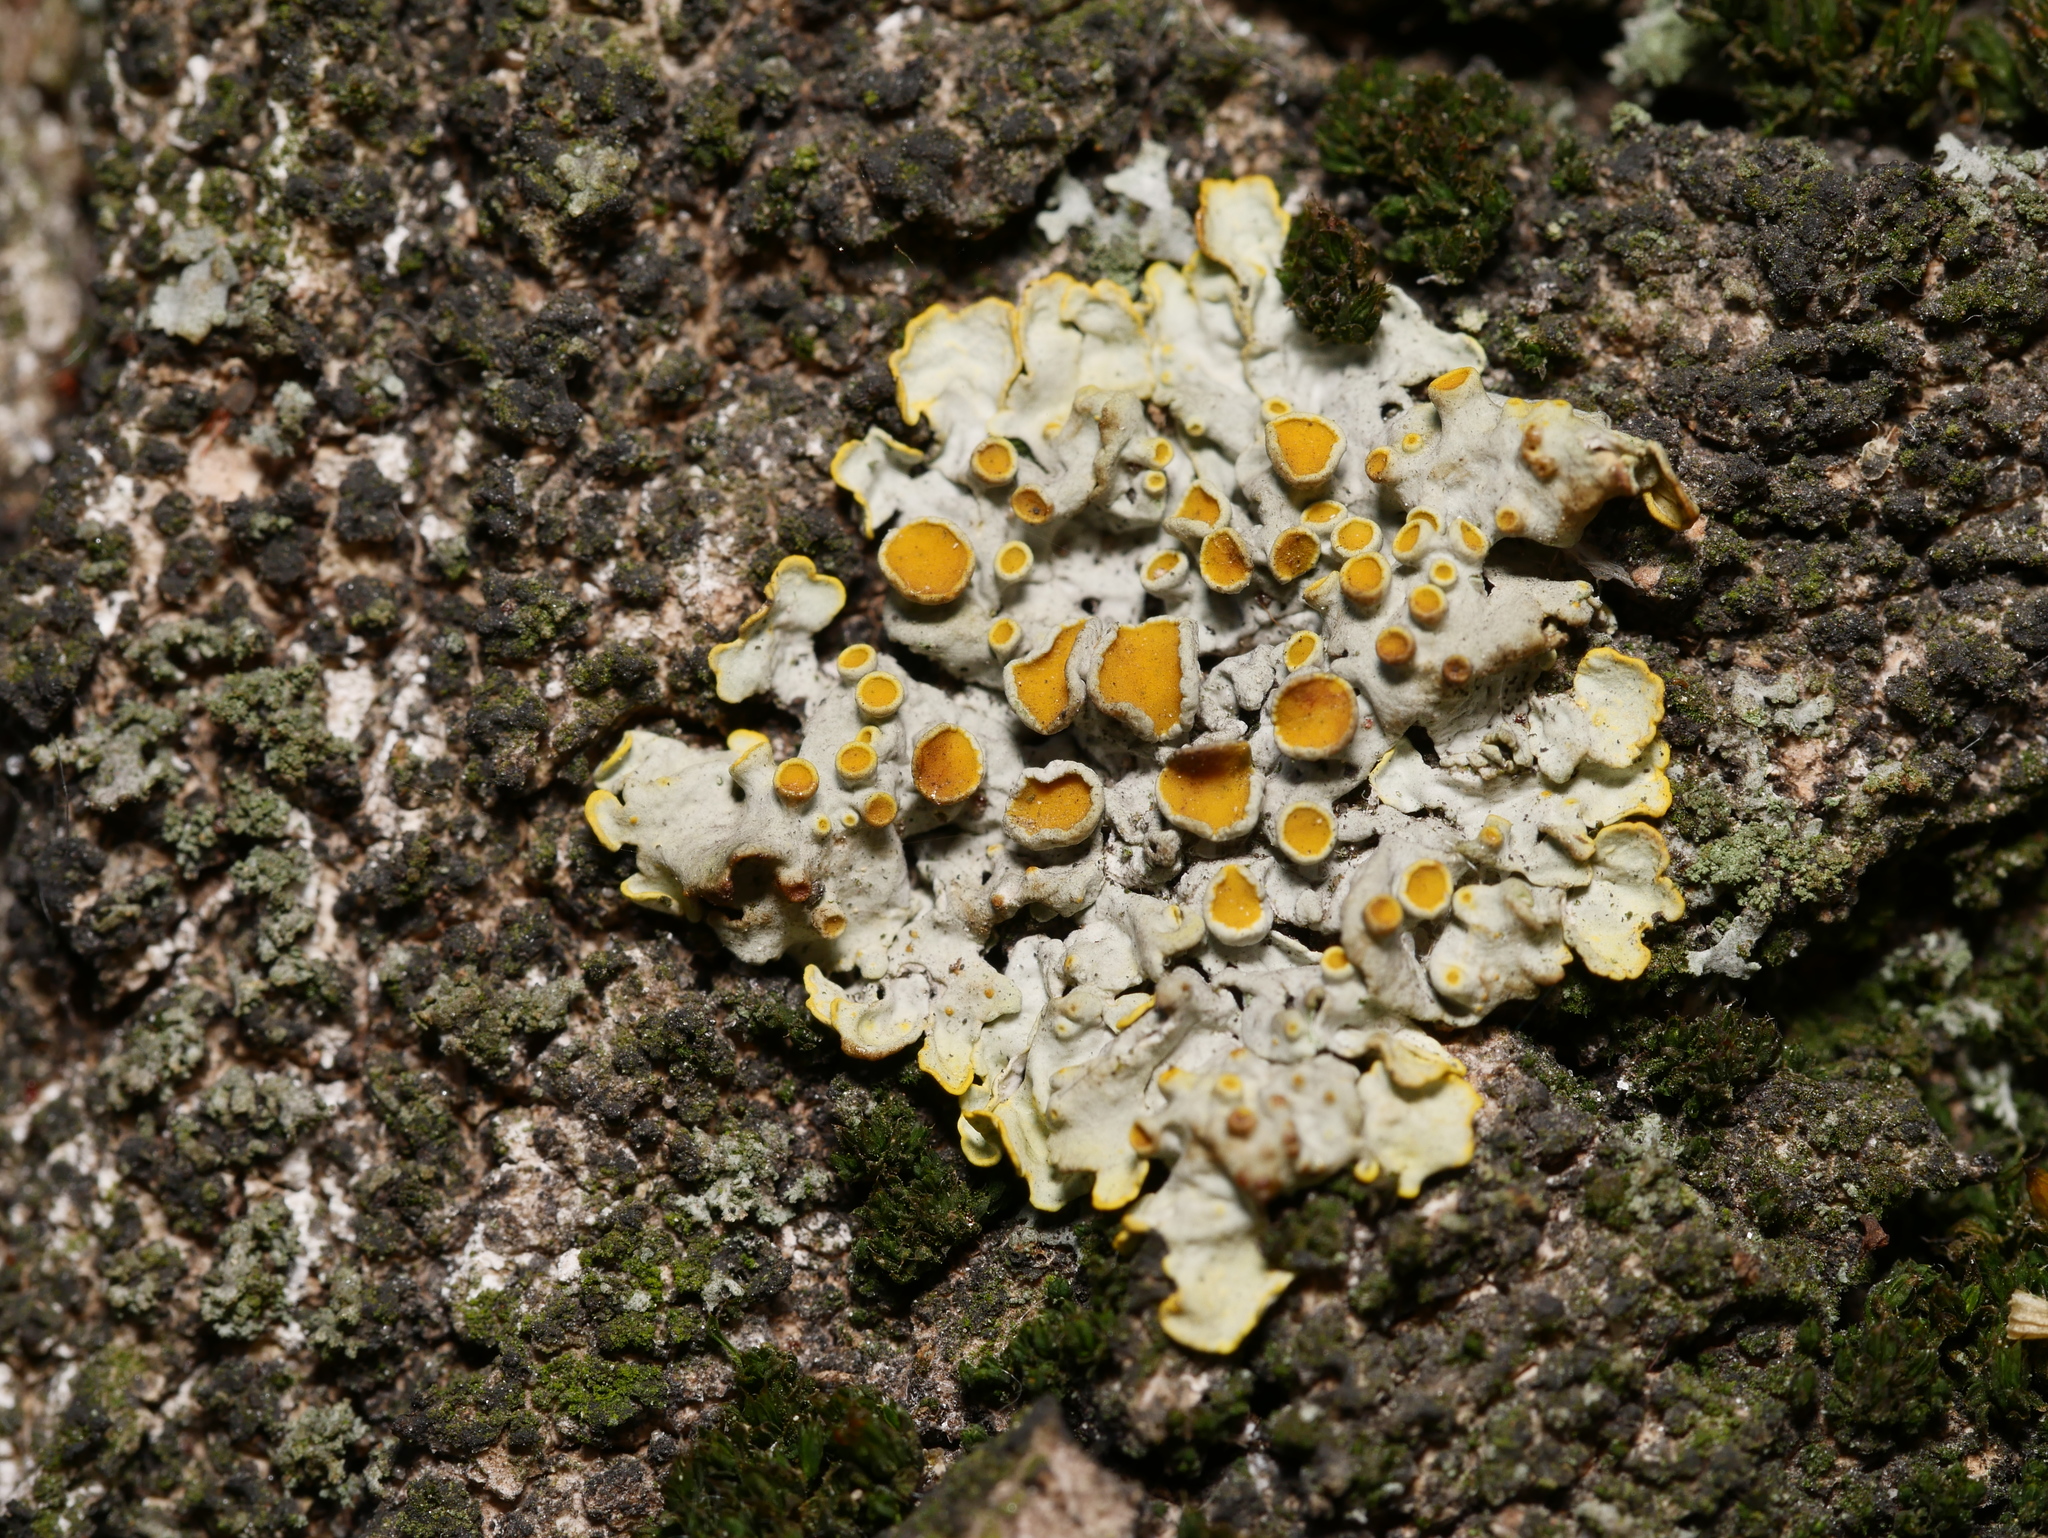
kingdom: Fungi
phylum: Ascomycota
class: Lecanoromycetes
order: Teloschistales
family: Teloschistaceae
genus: Xanthoria
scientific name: Xanthoria parietina
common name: Common orange lichen
